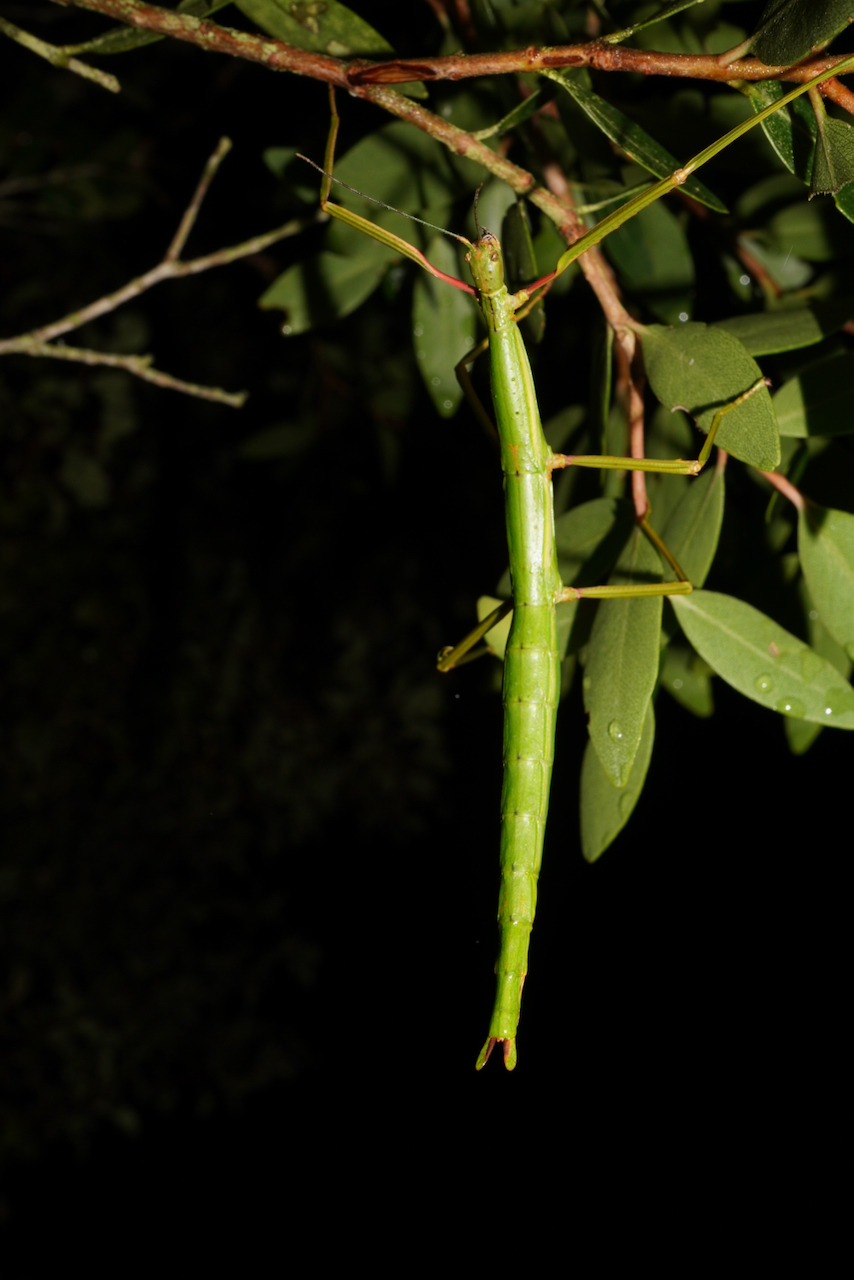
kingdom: Animalia
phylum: Arthropoda
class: Insecta
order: Phasmida
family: Phasmatidae
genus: Acanthoxyla
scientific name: Acanthoxyla inermis
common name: Unarmed stick insect
